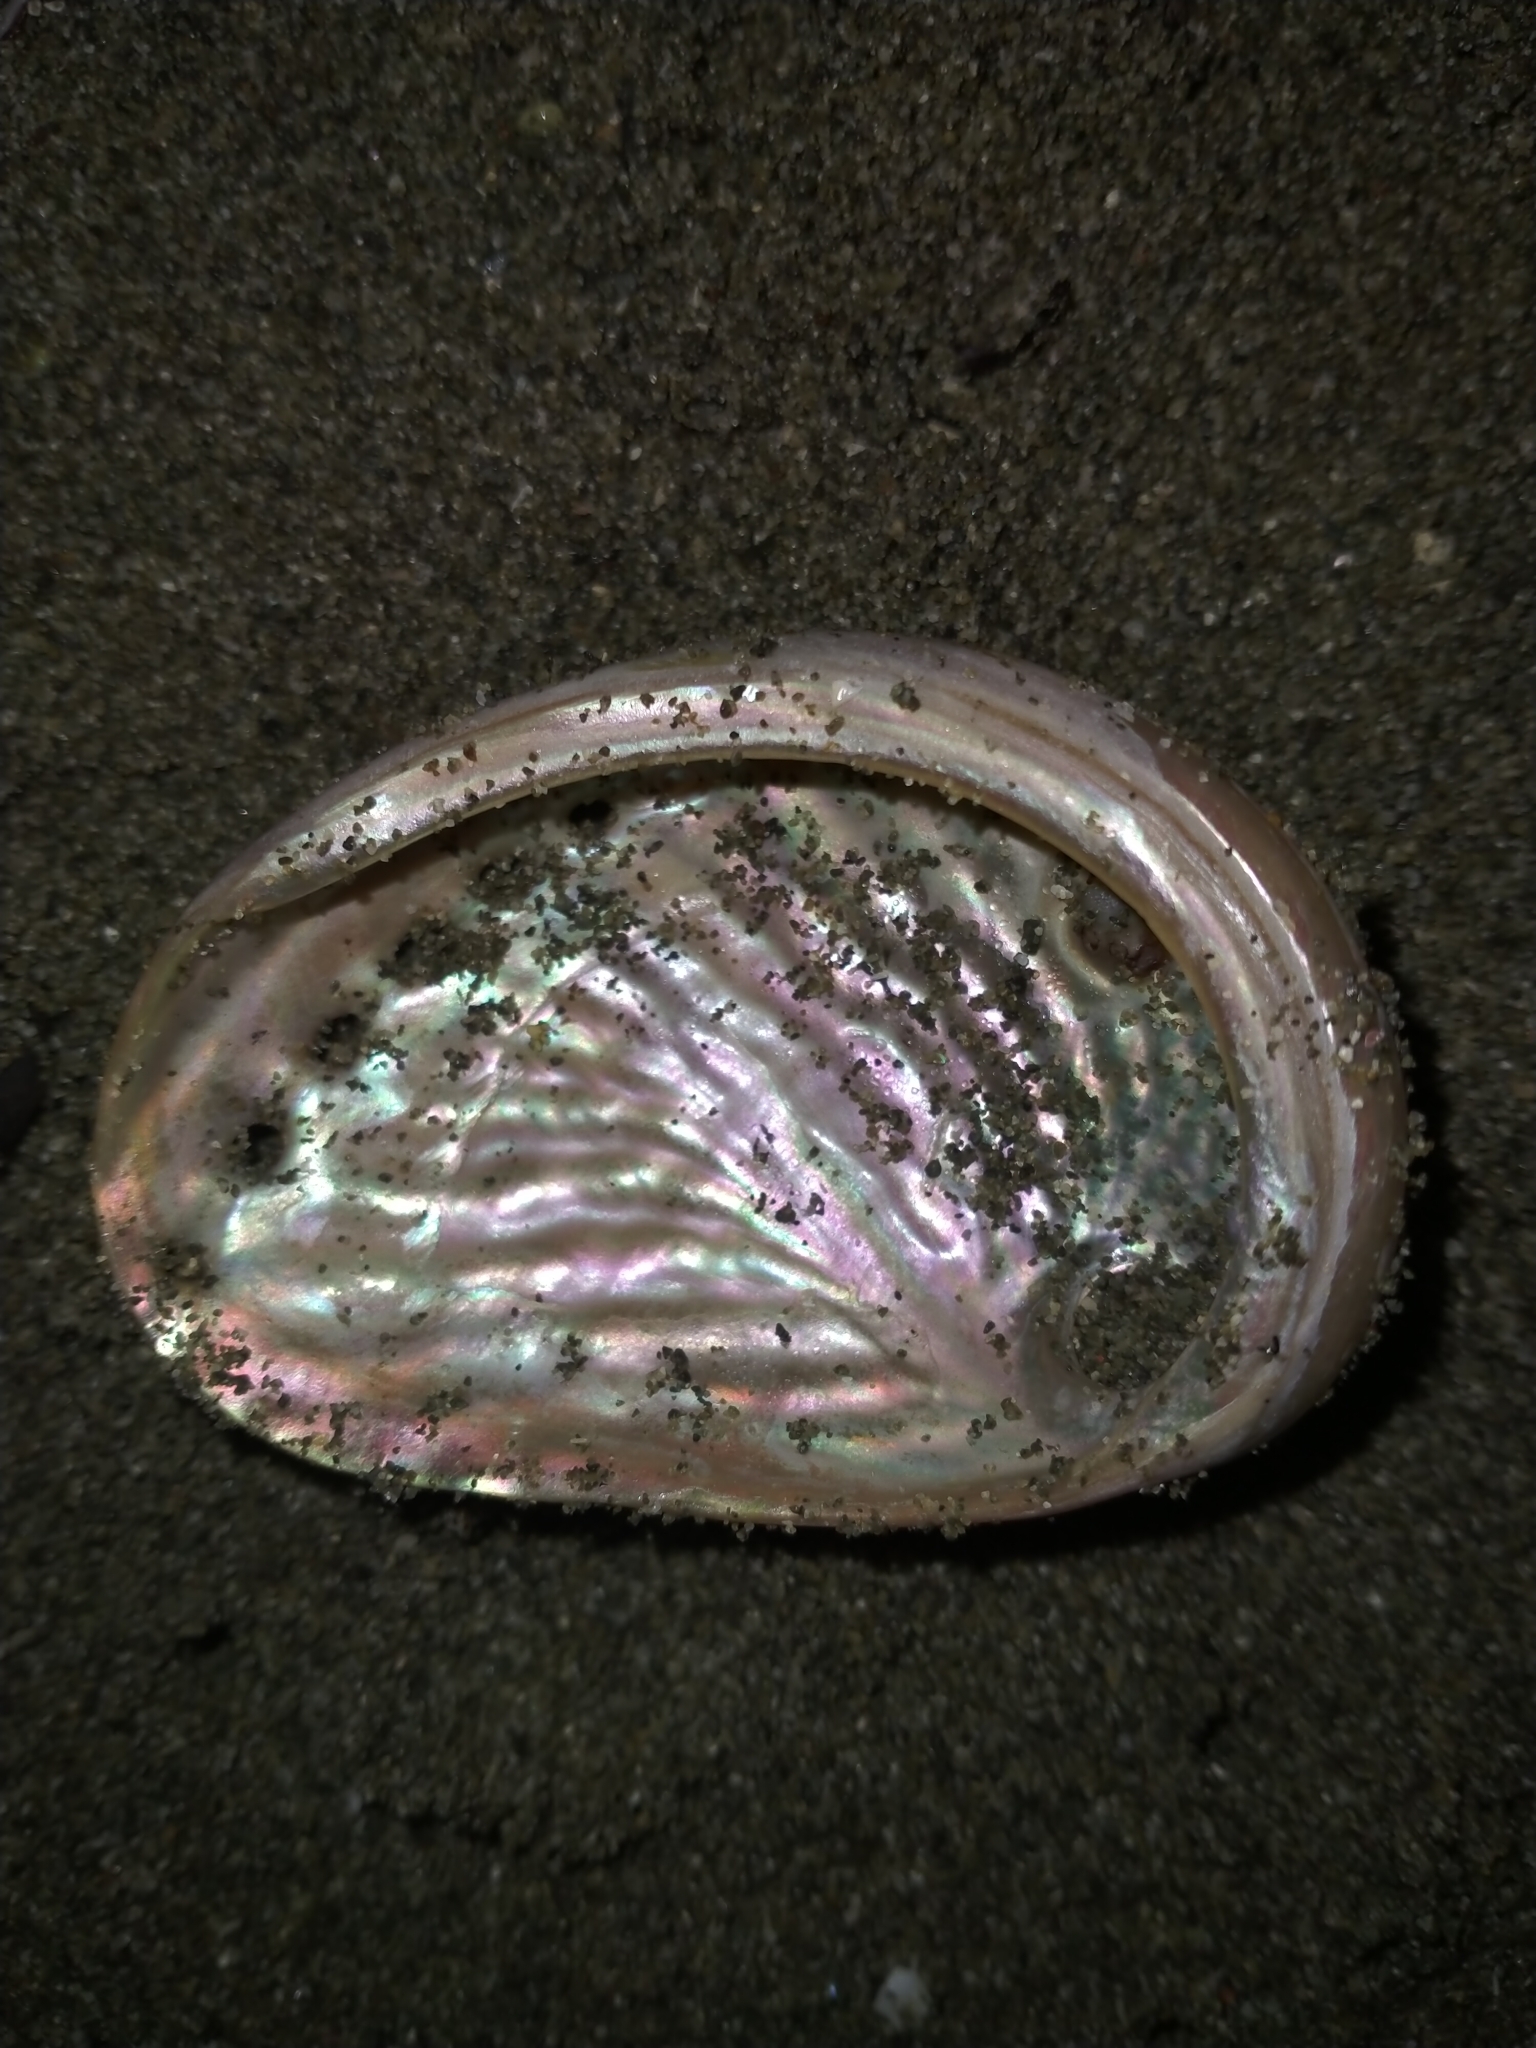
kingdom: Animalia
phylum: Mollusca
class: Gastropoda
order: Lepetellida
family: Haliotidae
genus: Haliotis
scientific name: Haliotis australis
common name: Silver abalone
